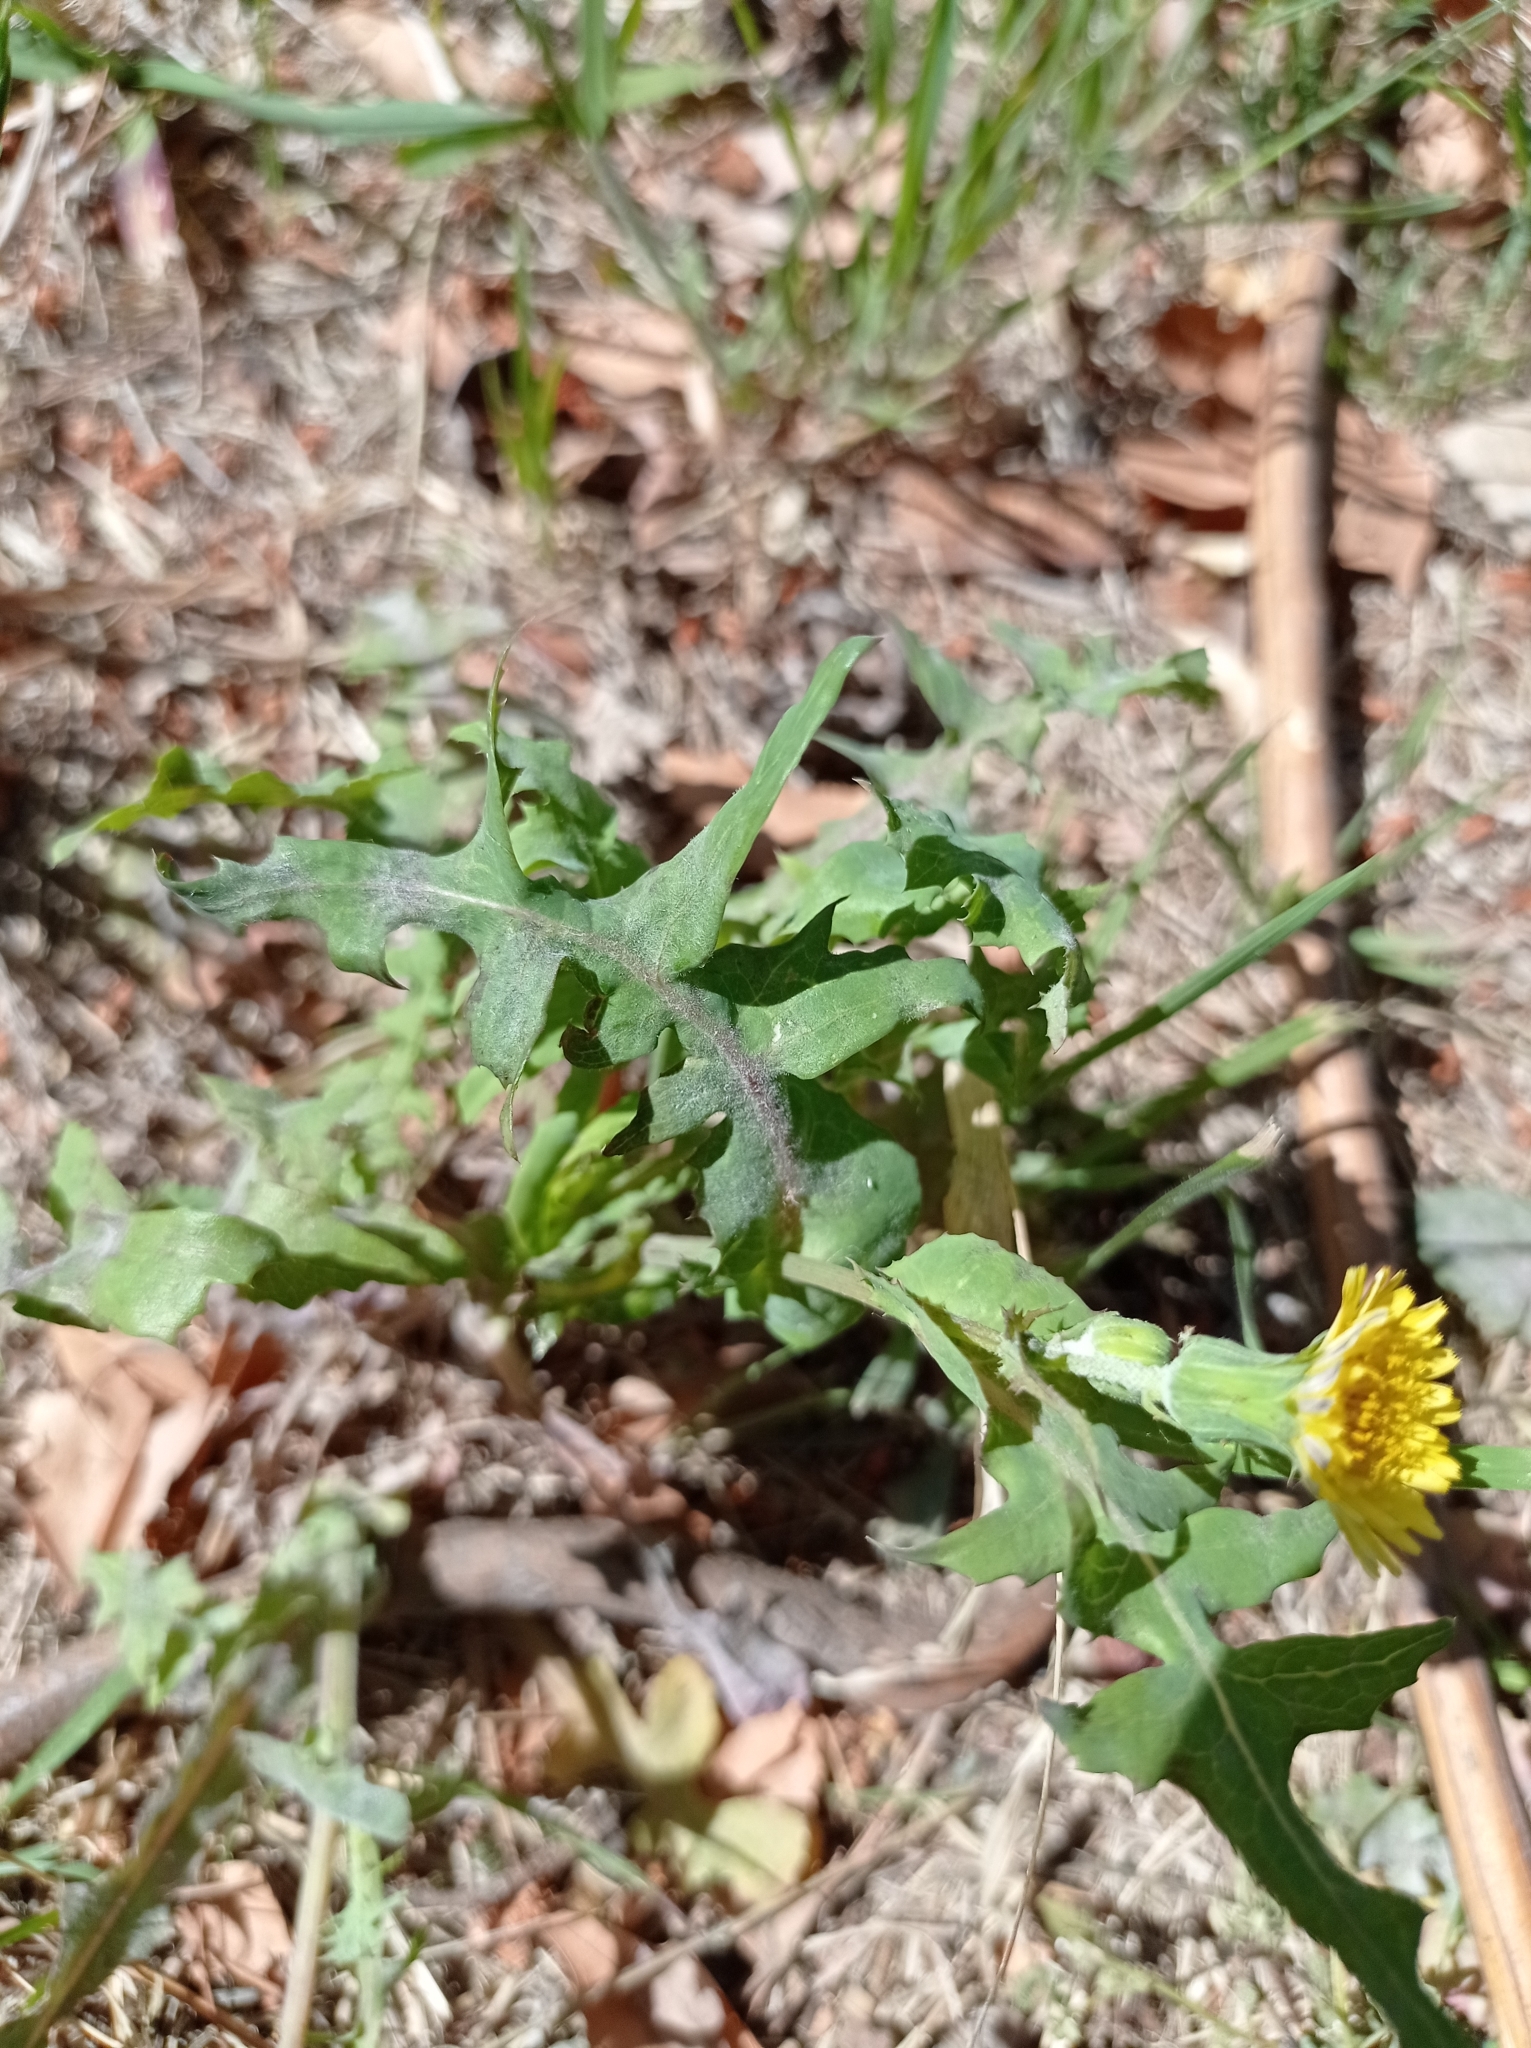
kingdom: Plantae
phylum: Tracheophyta
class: Magnoliopsida
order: Asterales
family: Asteraceae
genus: Sonchus
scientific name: Sonchus oleraceus
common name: Common sowthistle
